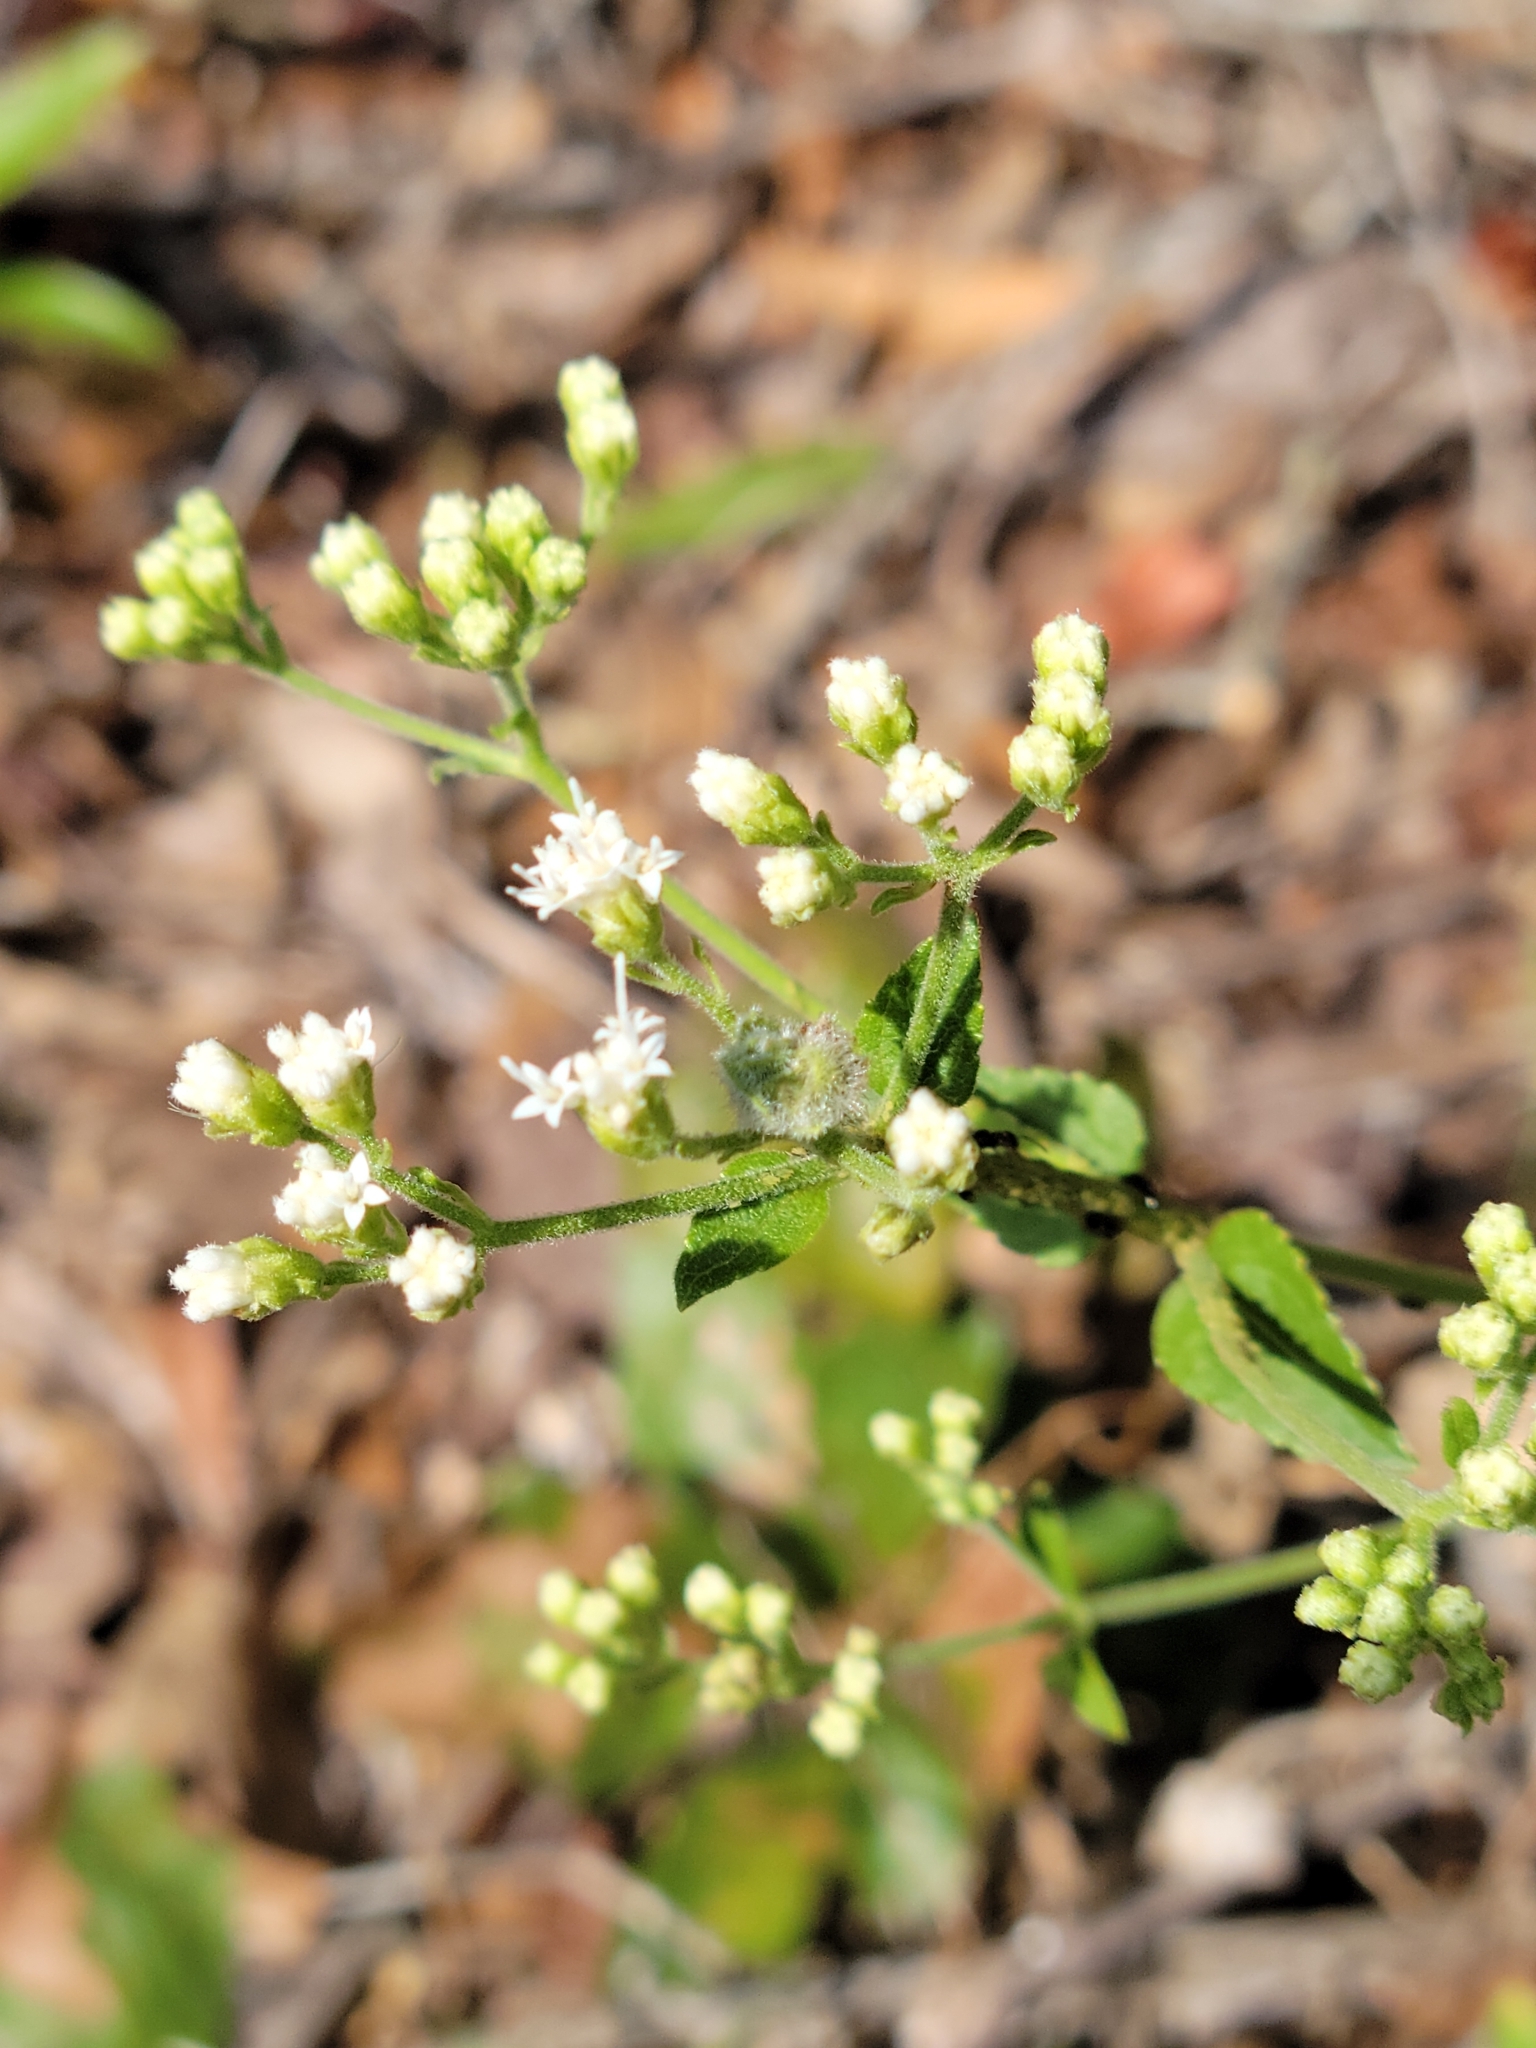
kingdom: Plantae
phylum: Tracheophyta
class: Magnoliopsida
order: Asterales
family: Asteraceae
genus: Ageratina
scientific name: Ageratina aromatica
